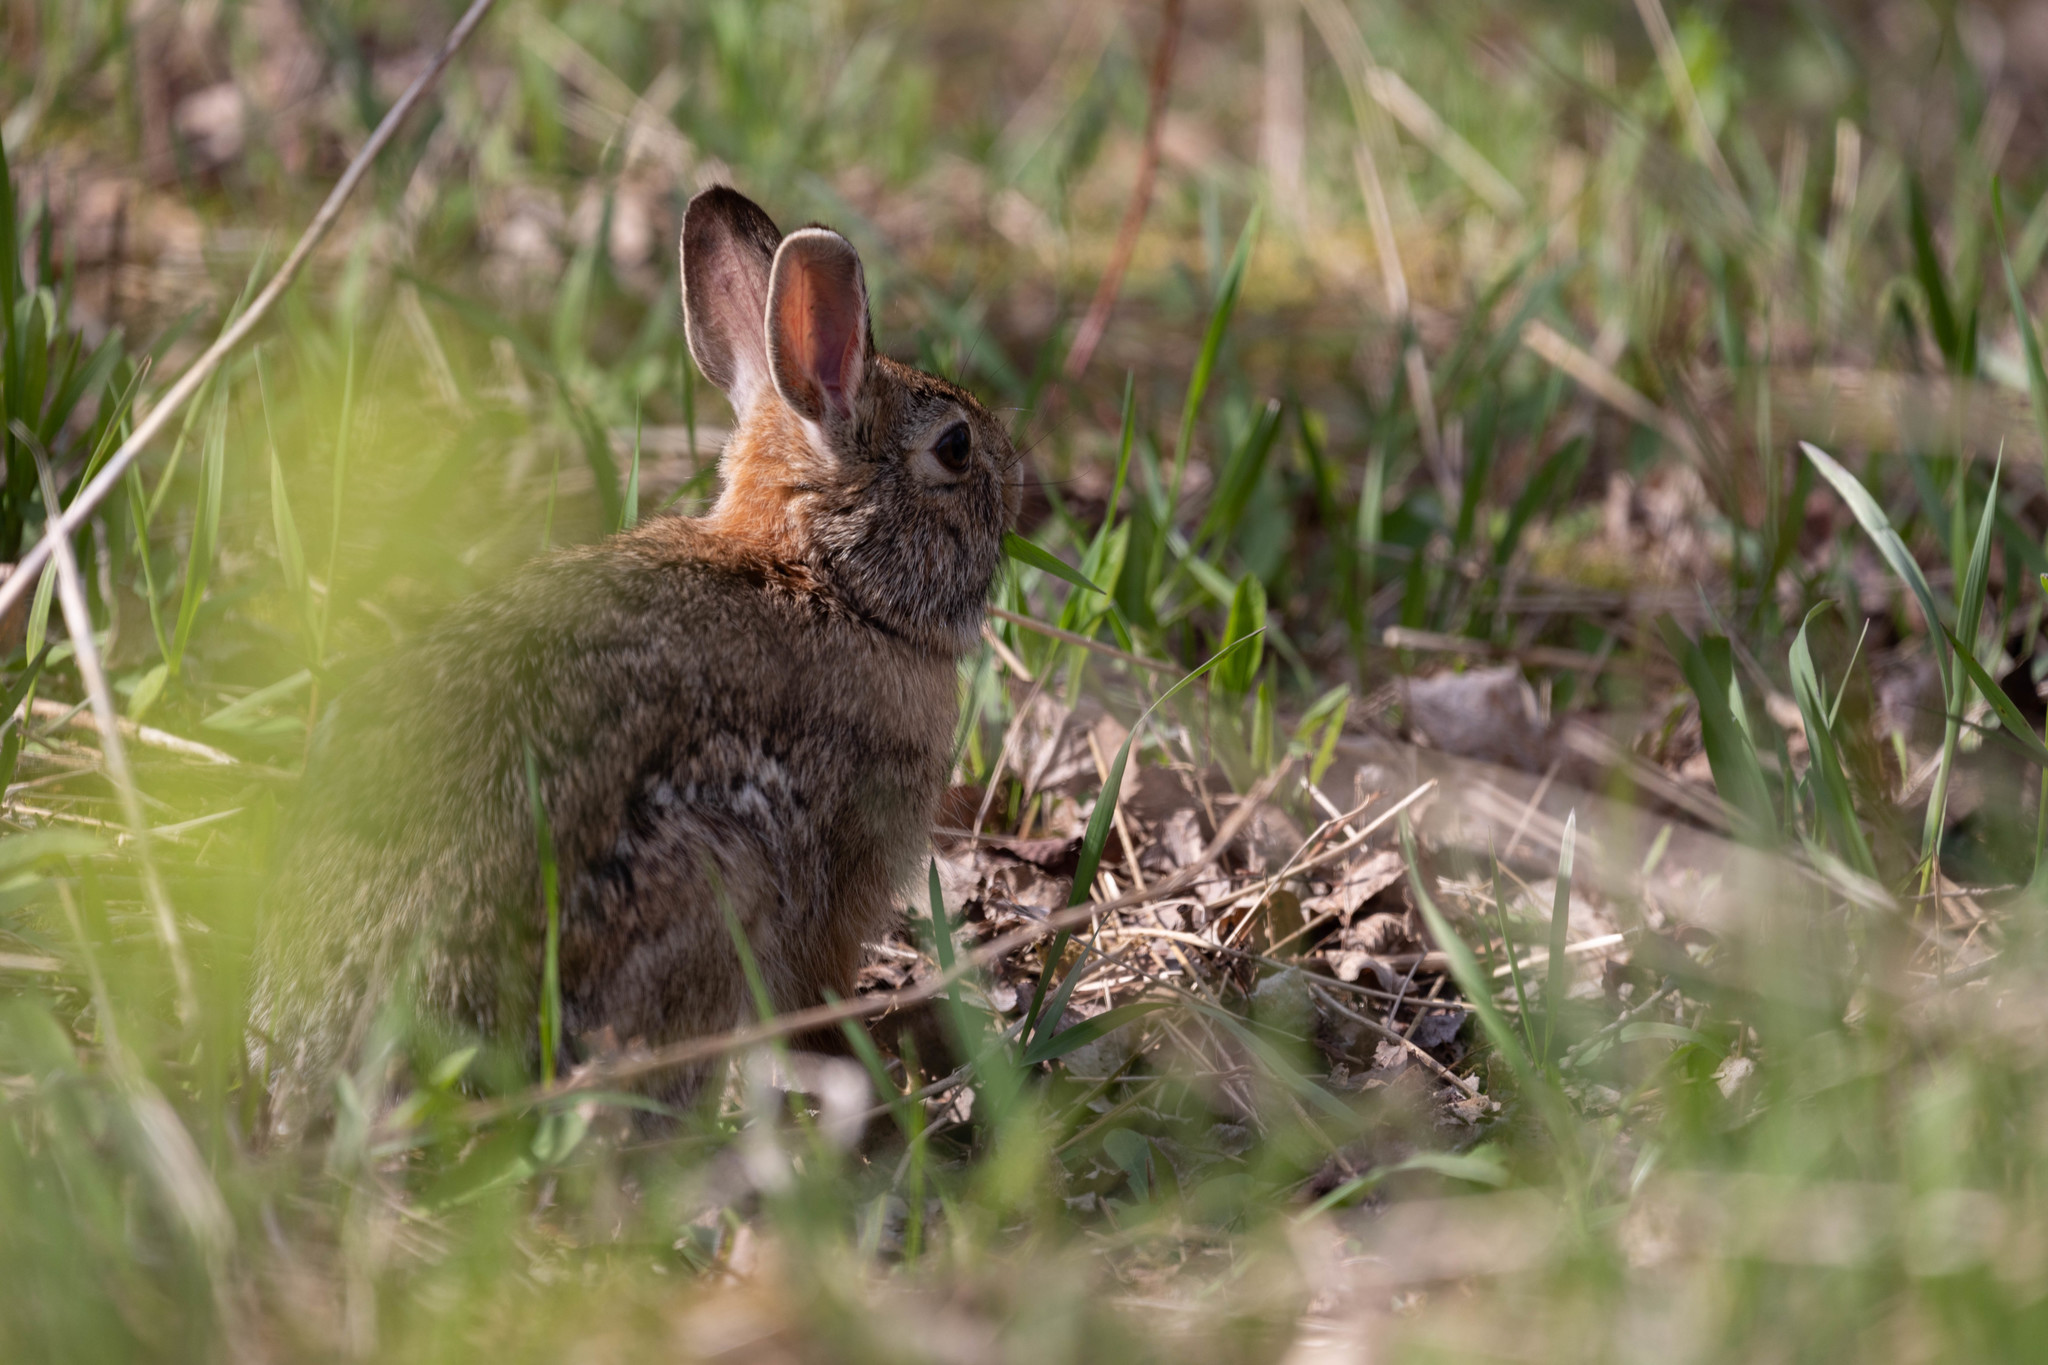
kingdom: Animalia
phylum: Chordata
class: Mammalia
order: Lagomorpha
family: Leporidae
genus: Sylvilagus
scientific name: Sylvilagus floridanus
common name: Eastern cottontail
